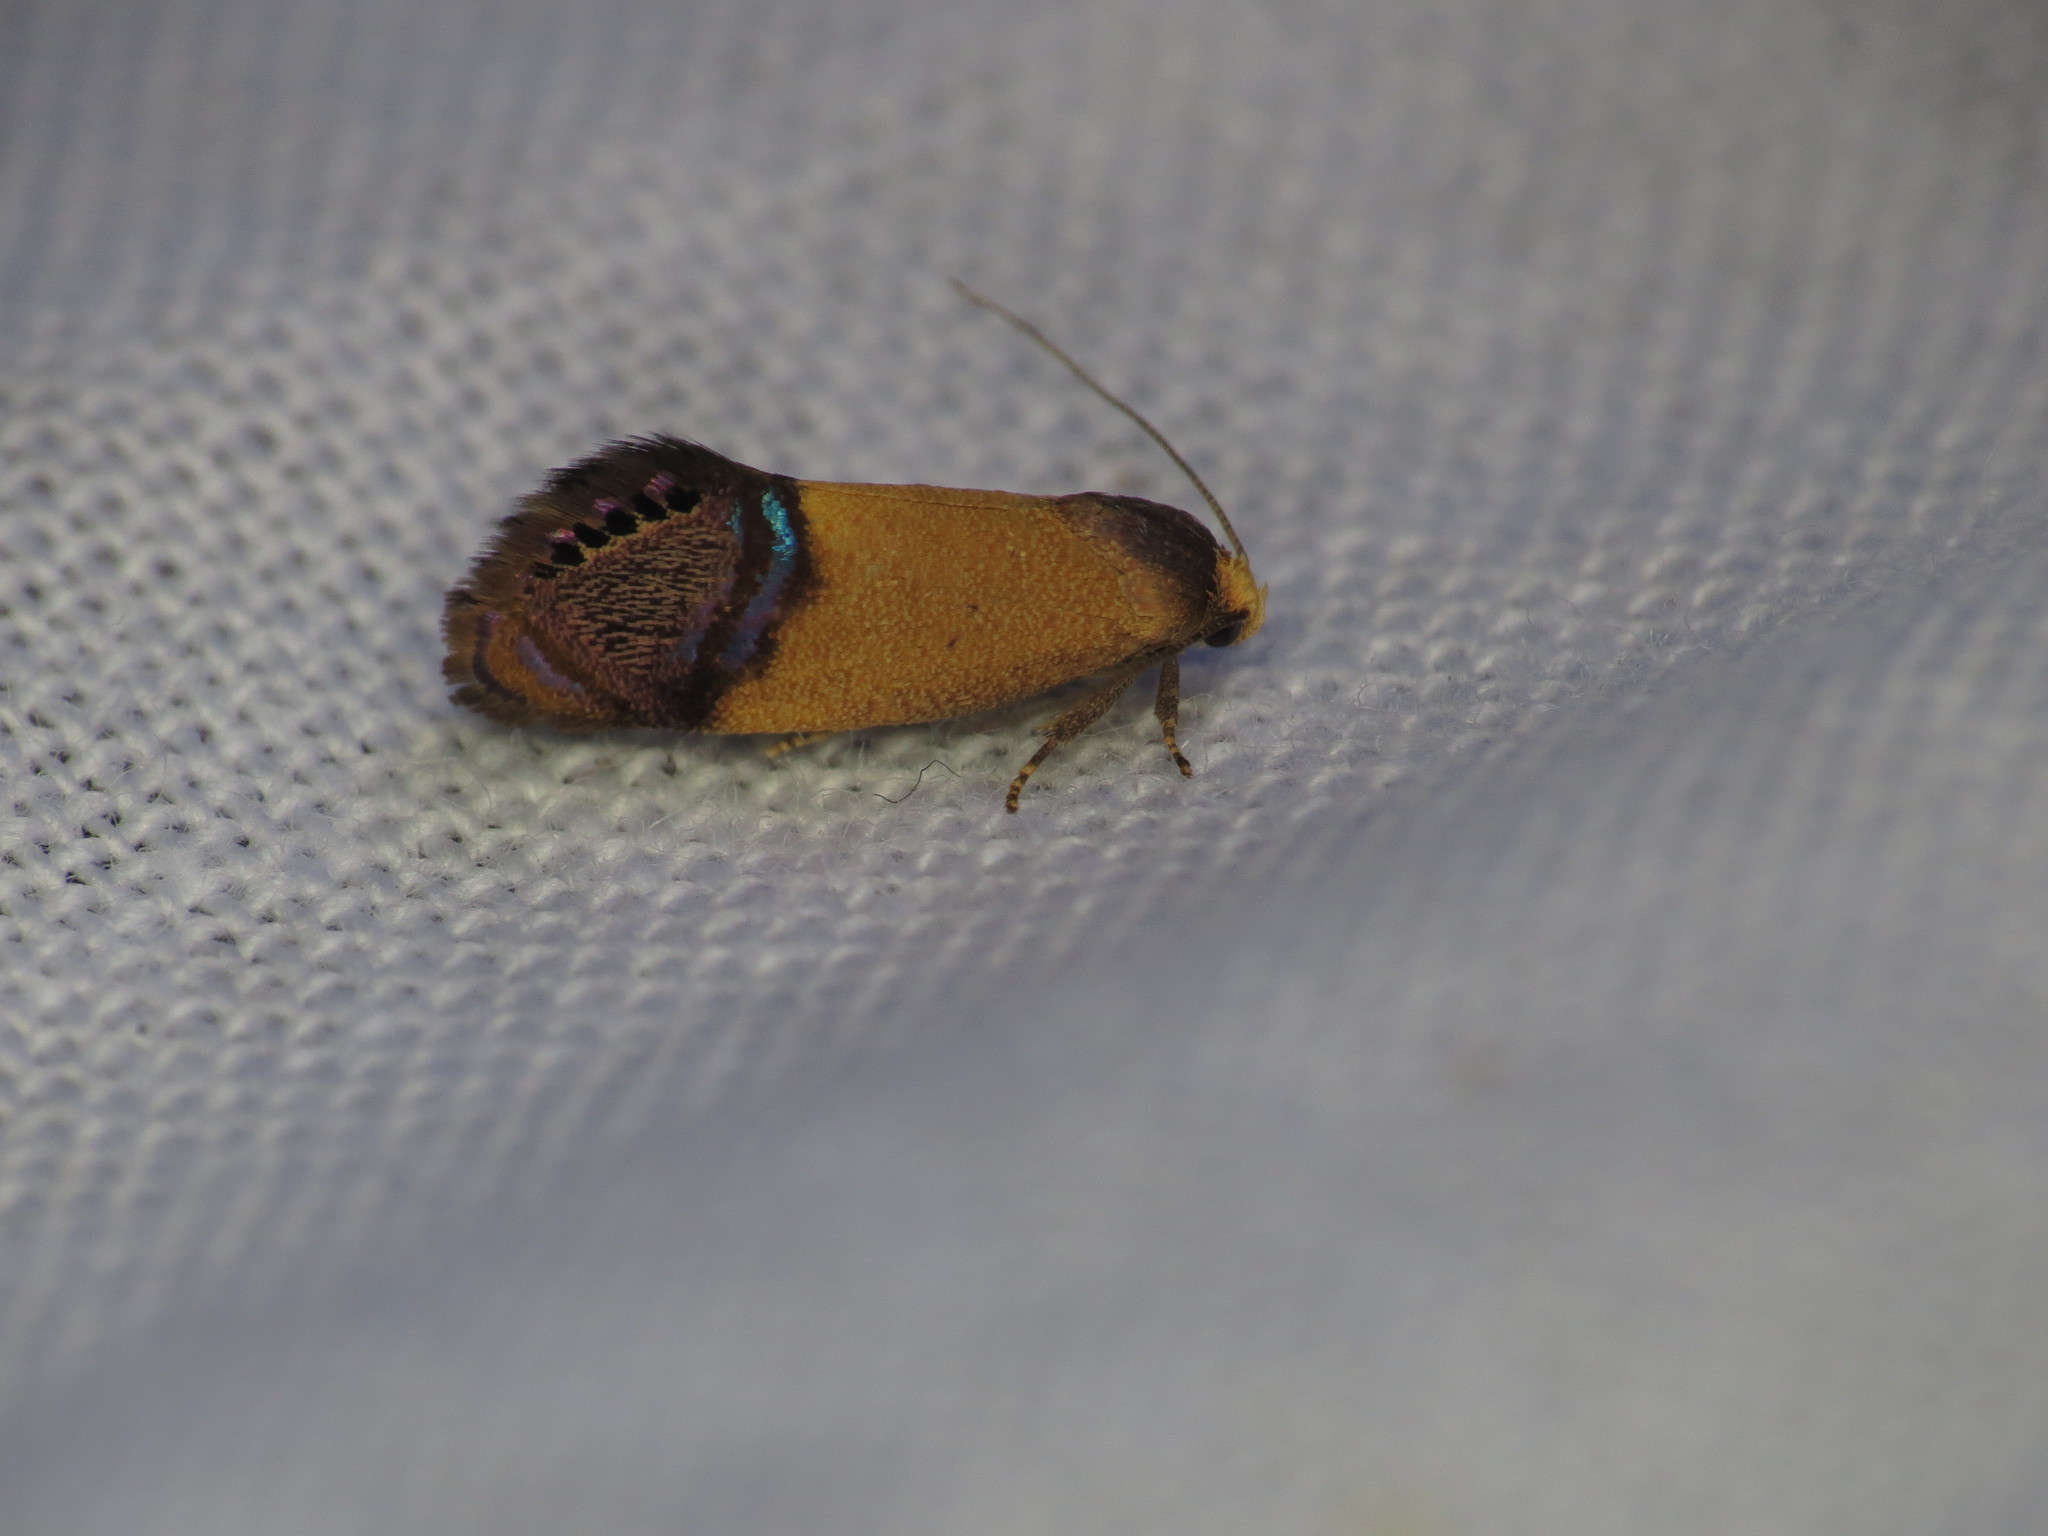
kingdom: Animalia
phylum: Arthropoda
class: Insecta
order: Lepidoptera
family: Depressariidae
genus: Eupselia
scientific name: Eupselia satrapella
